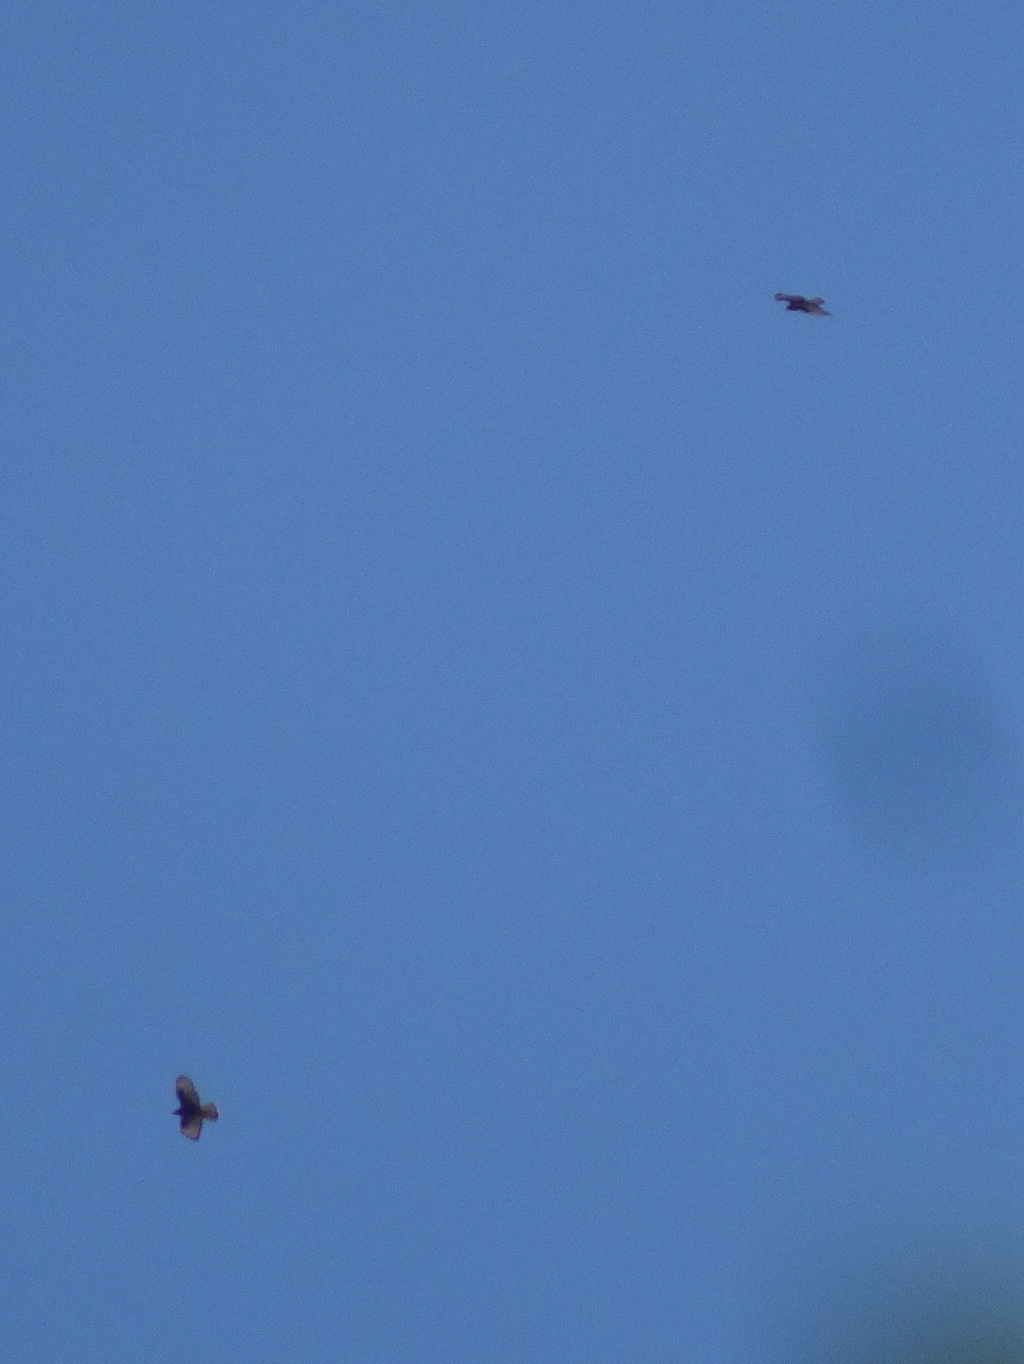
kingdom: Animalia
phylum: Chordata
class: Aves
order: Accipitriformes
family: Accipitridae
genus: Pernis
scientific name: Pernis apivorus
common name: European honey buzzard
